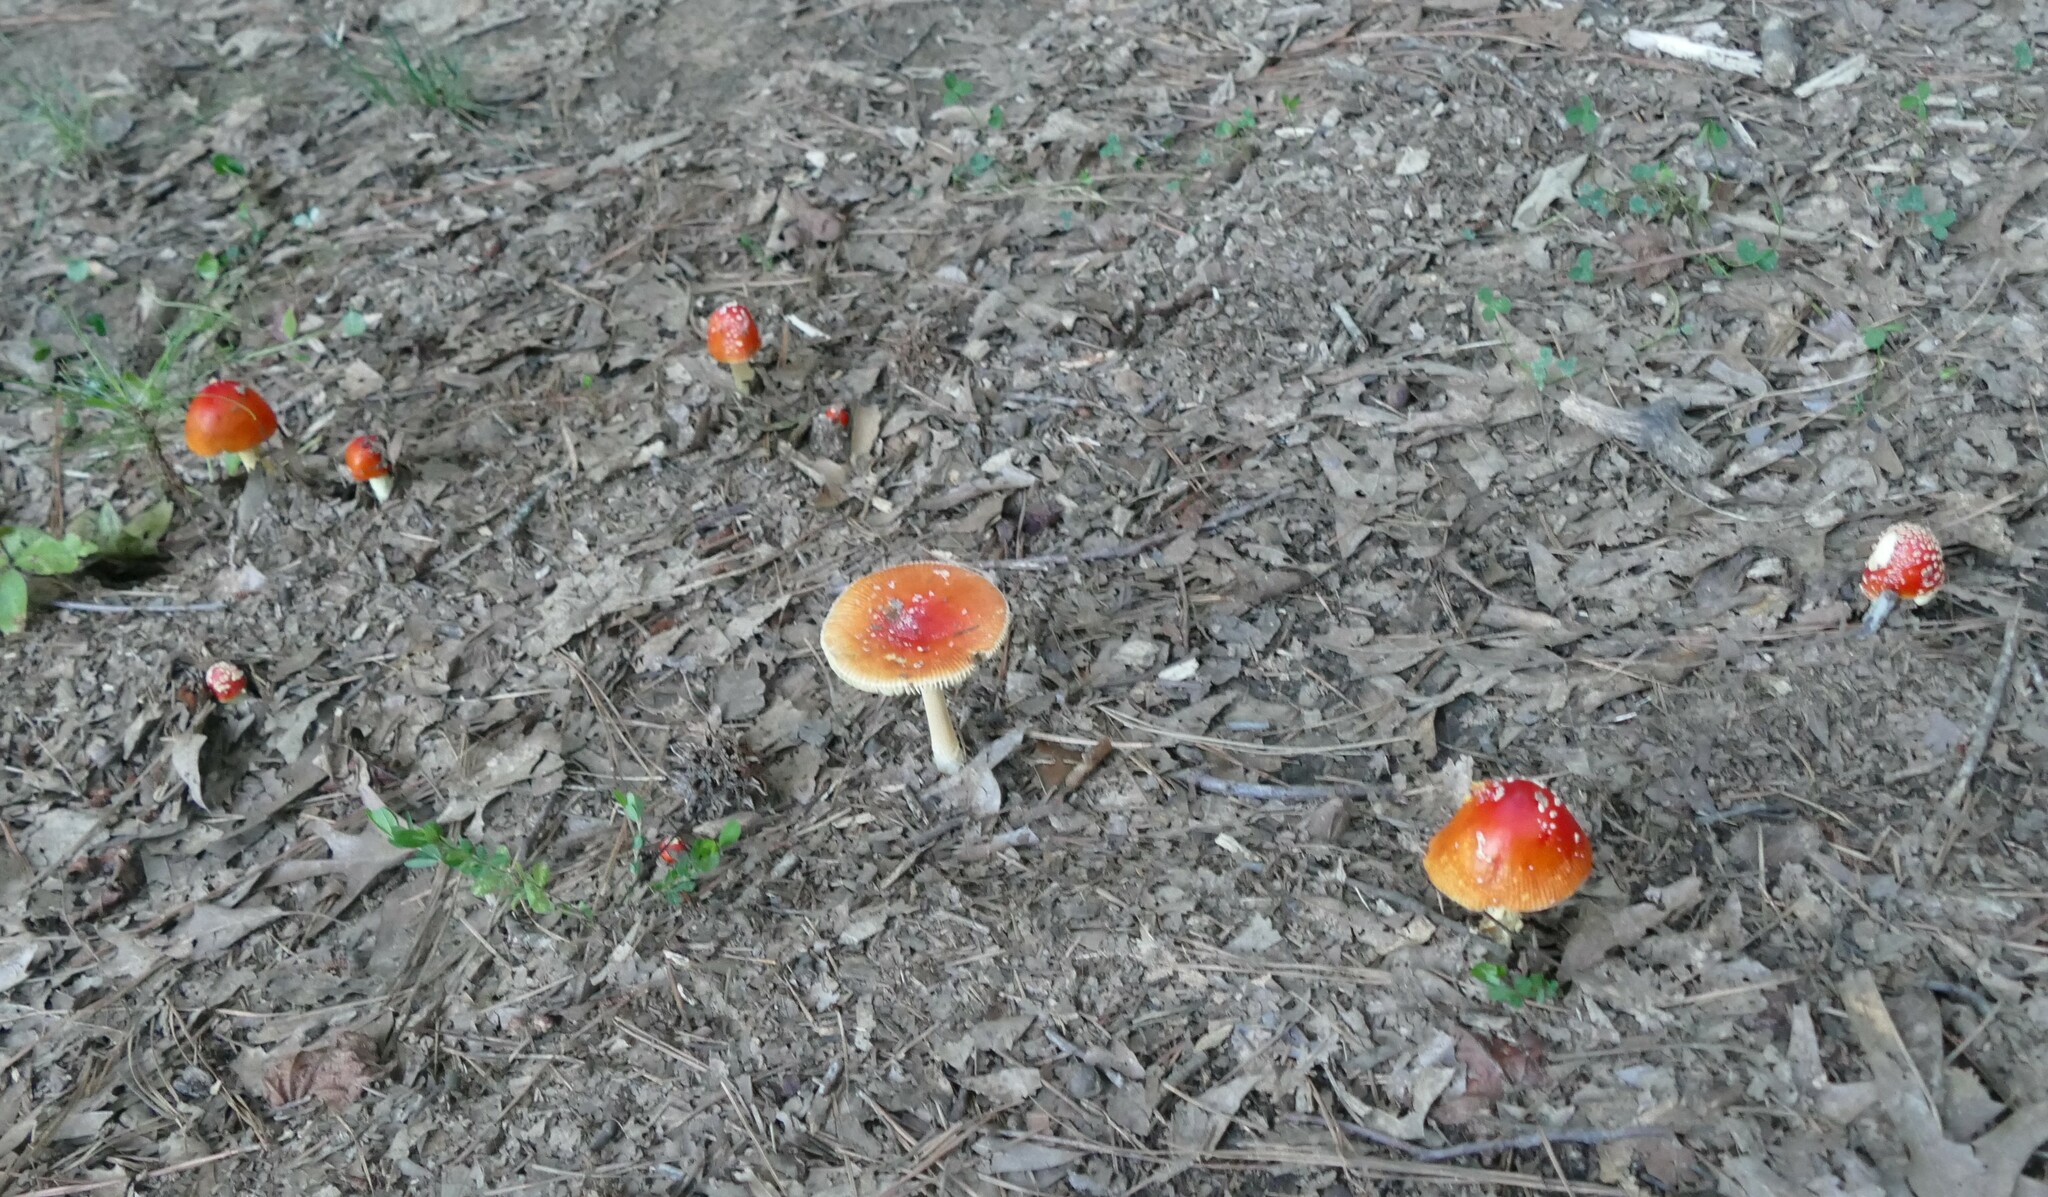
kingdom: Fungi
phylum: Basidiomycota
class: Agaricomycetes
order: Agaricales
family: Amanitaceae
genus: Amanita
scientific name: Amanita parcivolvata
